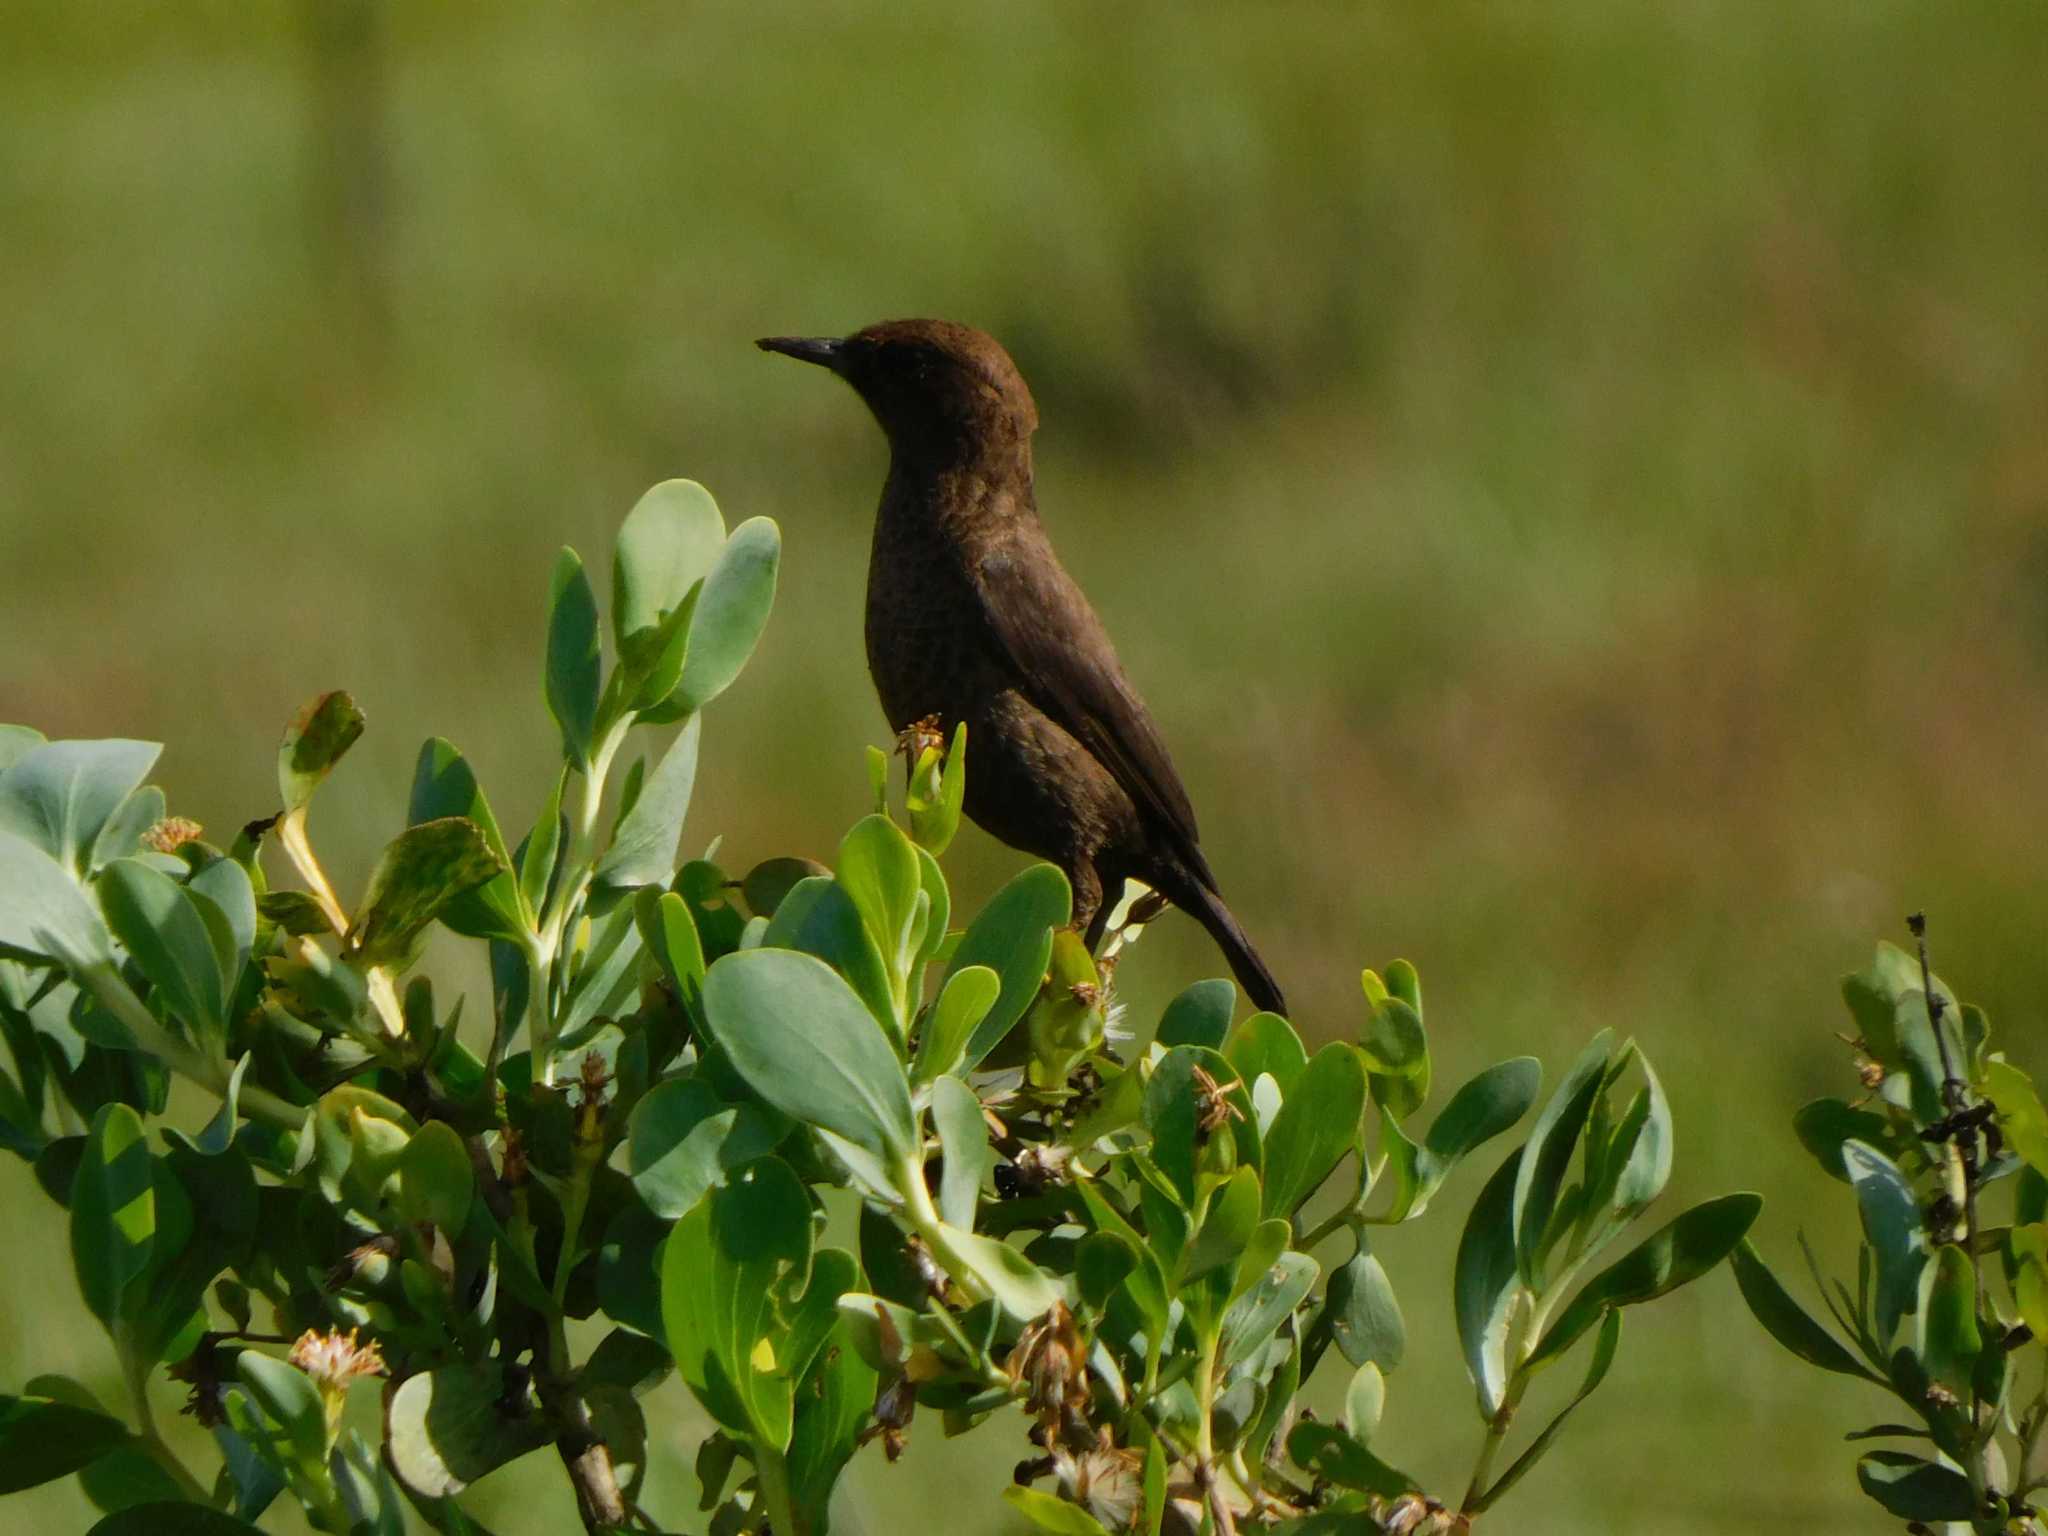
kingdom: Animalia
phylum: Chordata
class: Aves
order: Passeriformes
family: Muscicapidae
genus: Myrmecocichla
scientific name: Myrmecocichla formicivora
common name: Ant-eating chat
